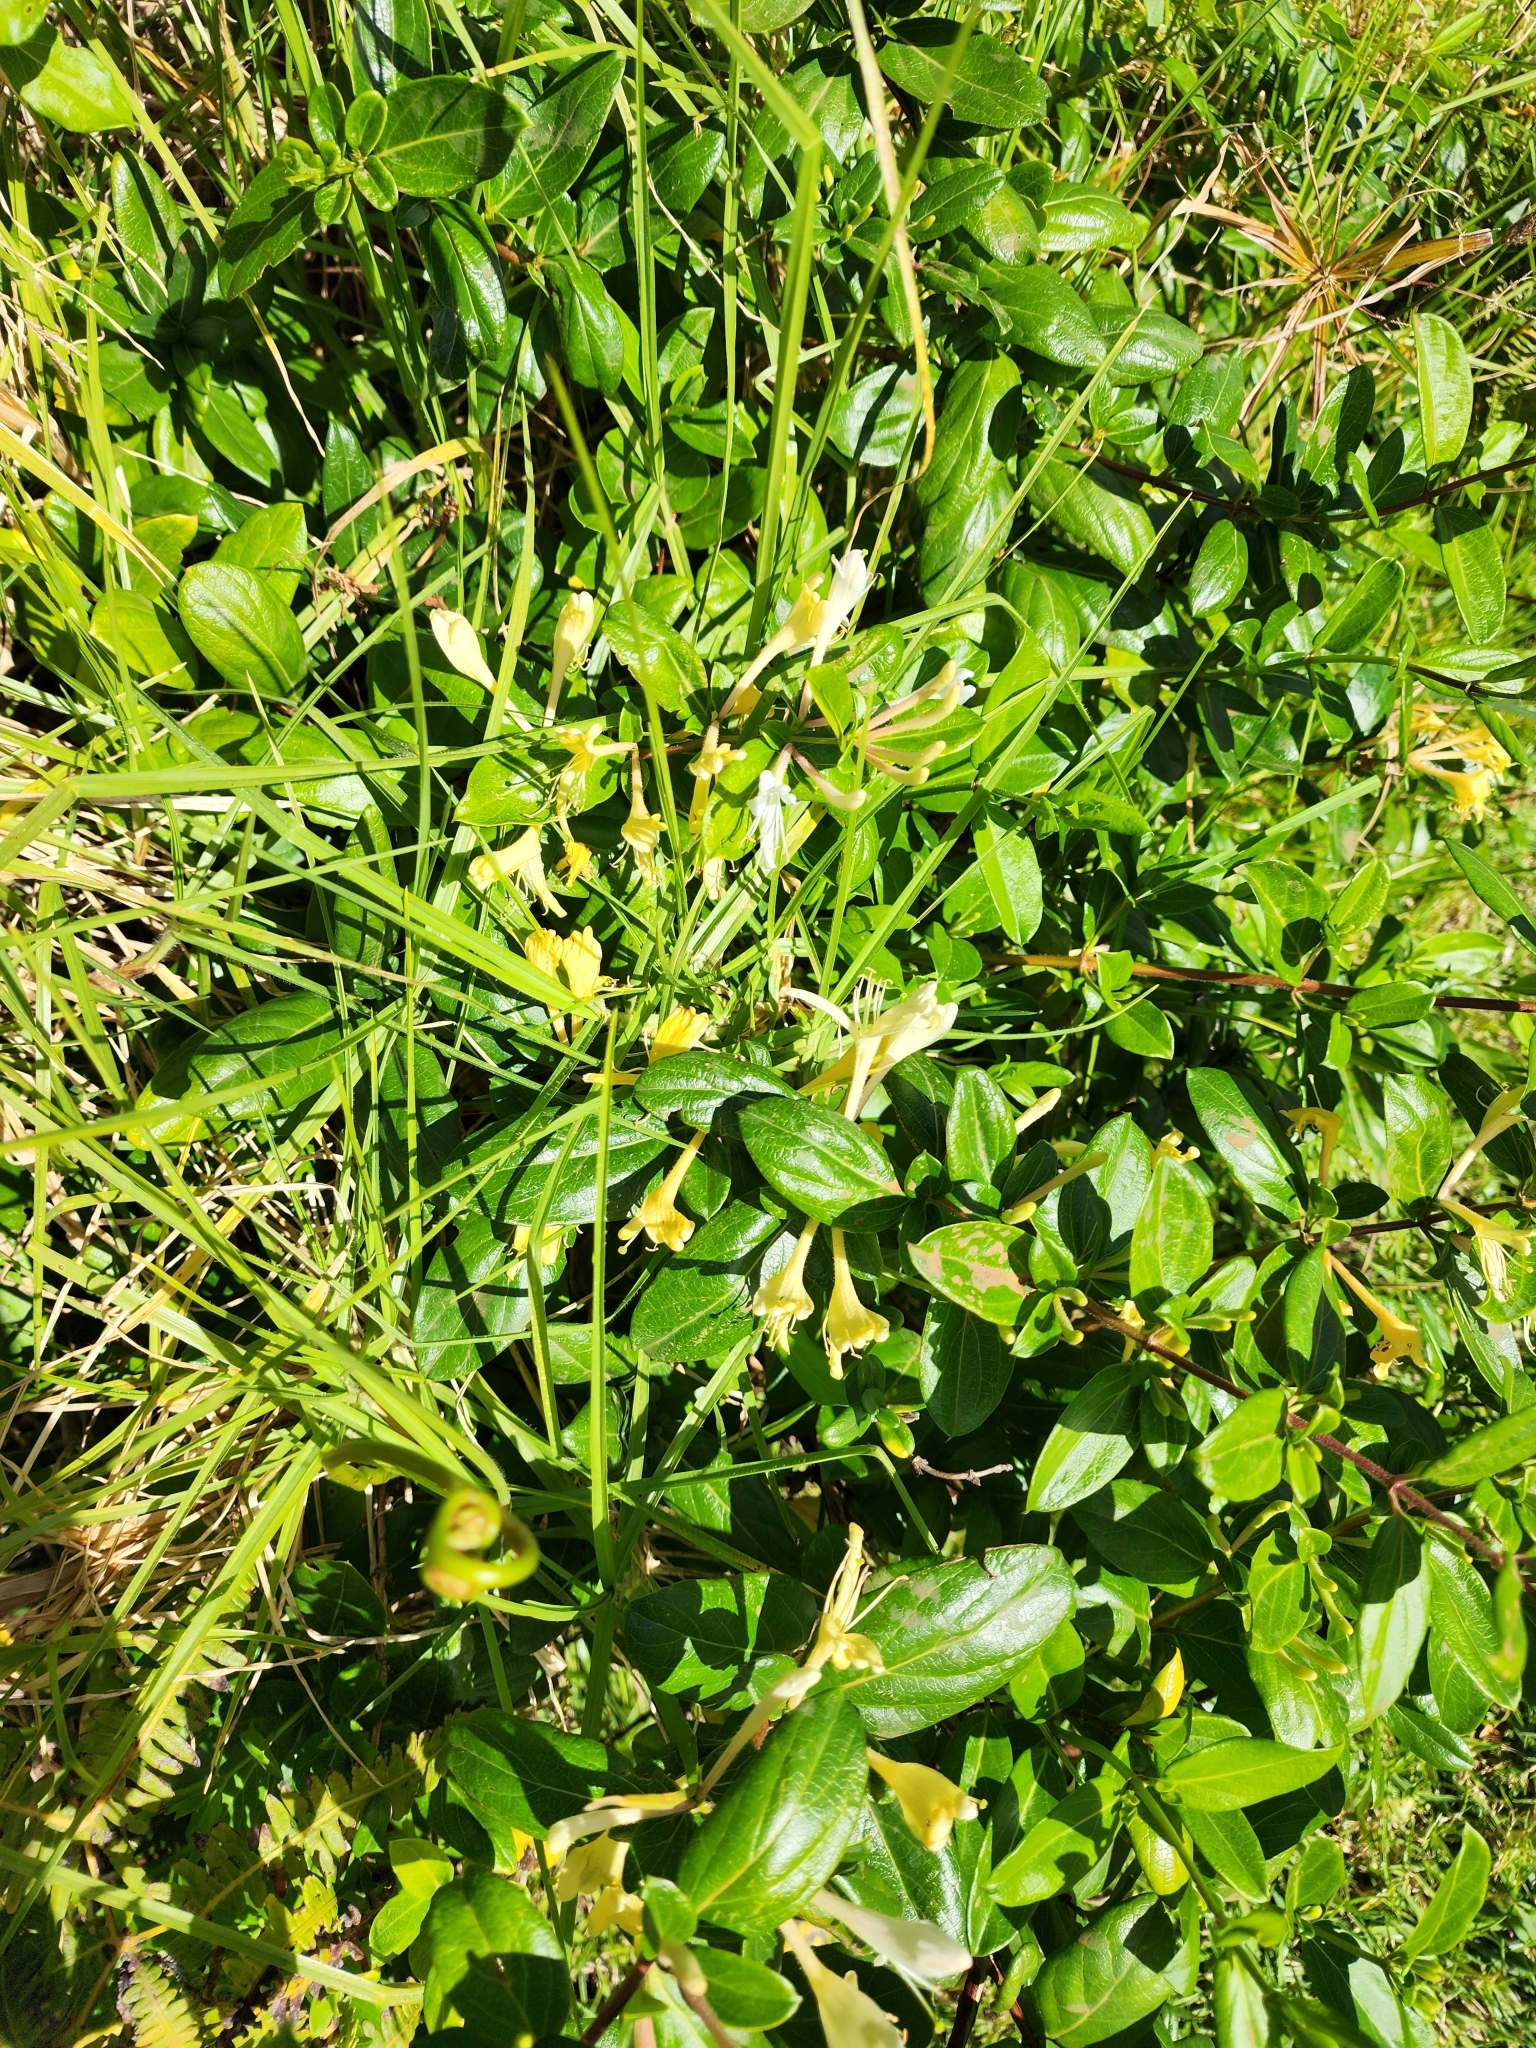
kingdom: Plantae
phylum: Tracheophyta
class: Magnoliopsida
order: Dipsacales
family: Caprifoliaceae
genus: Lonicera
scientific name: Lonicera japonica
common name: Japanese honeysuckle
